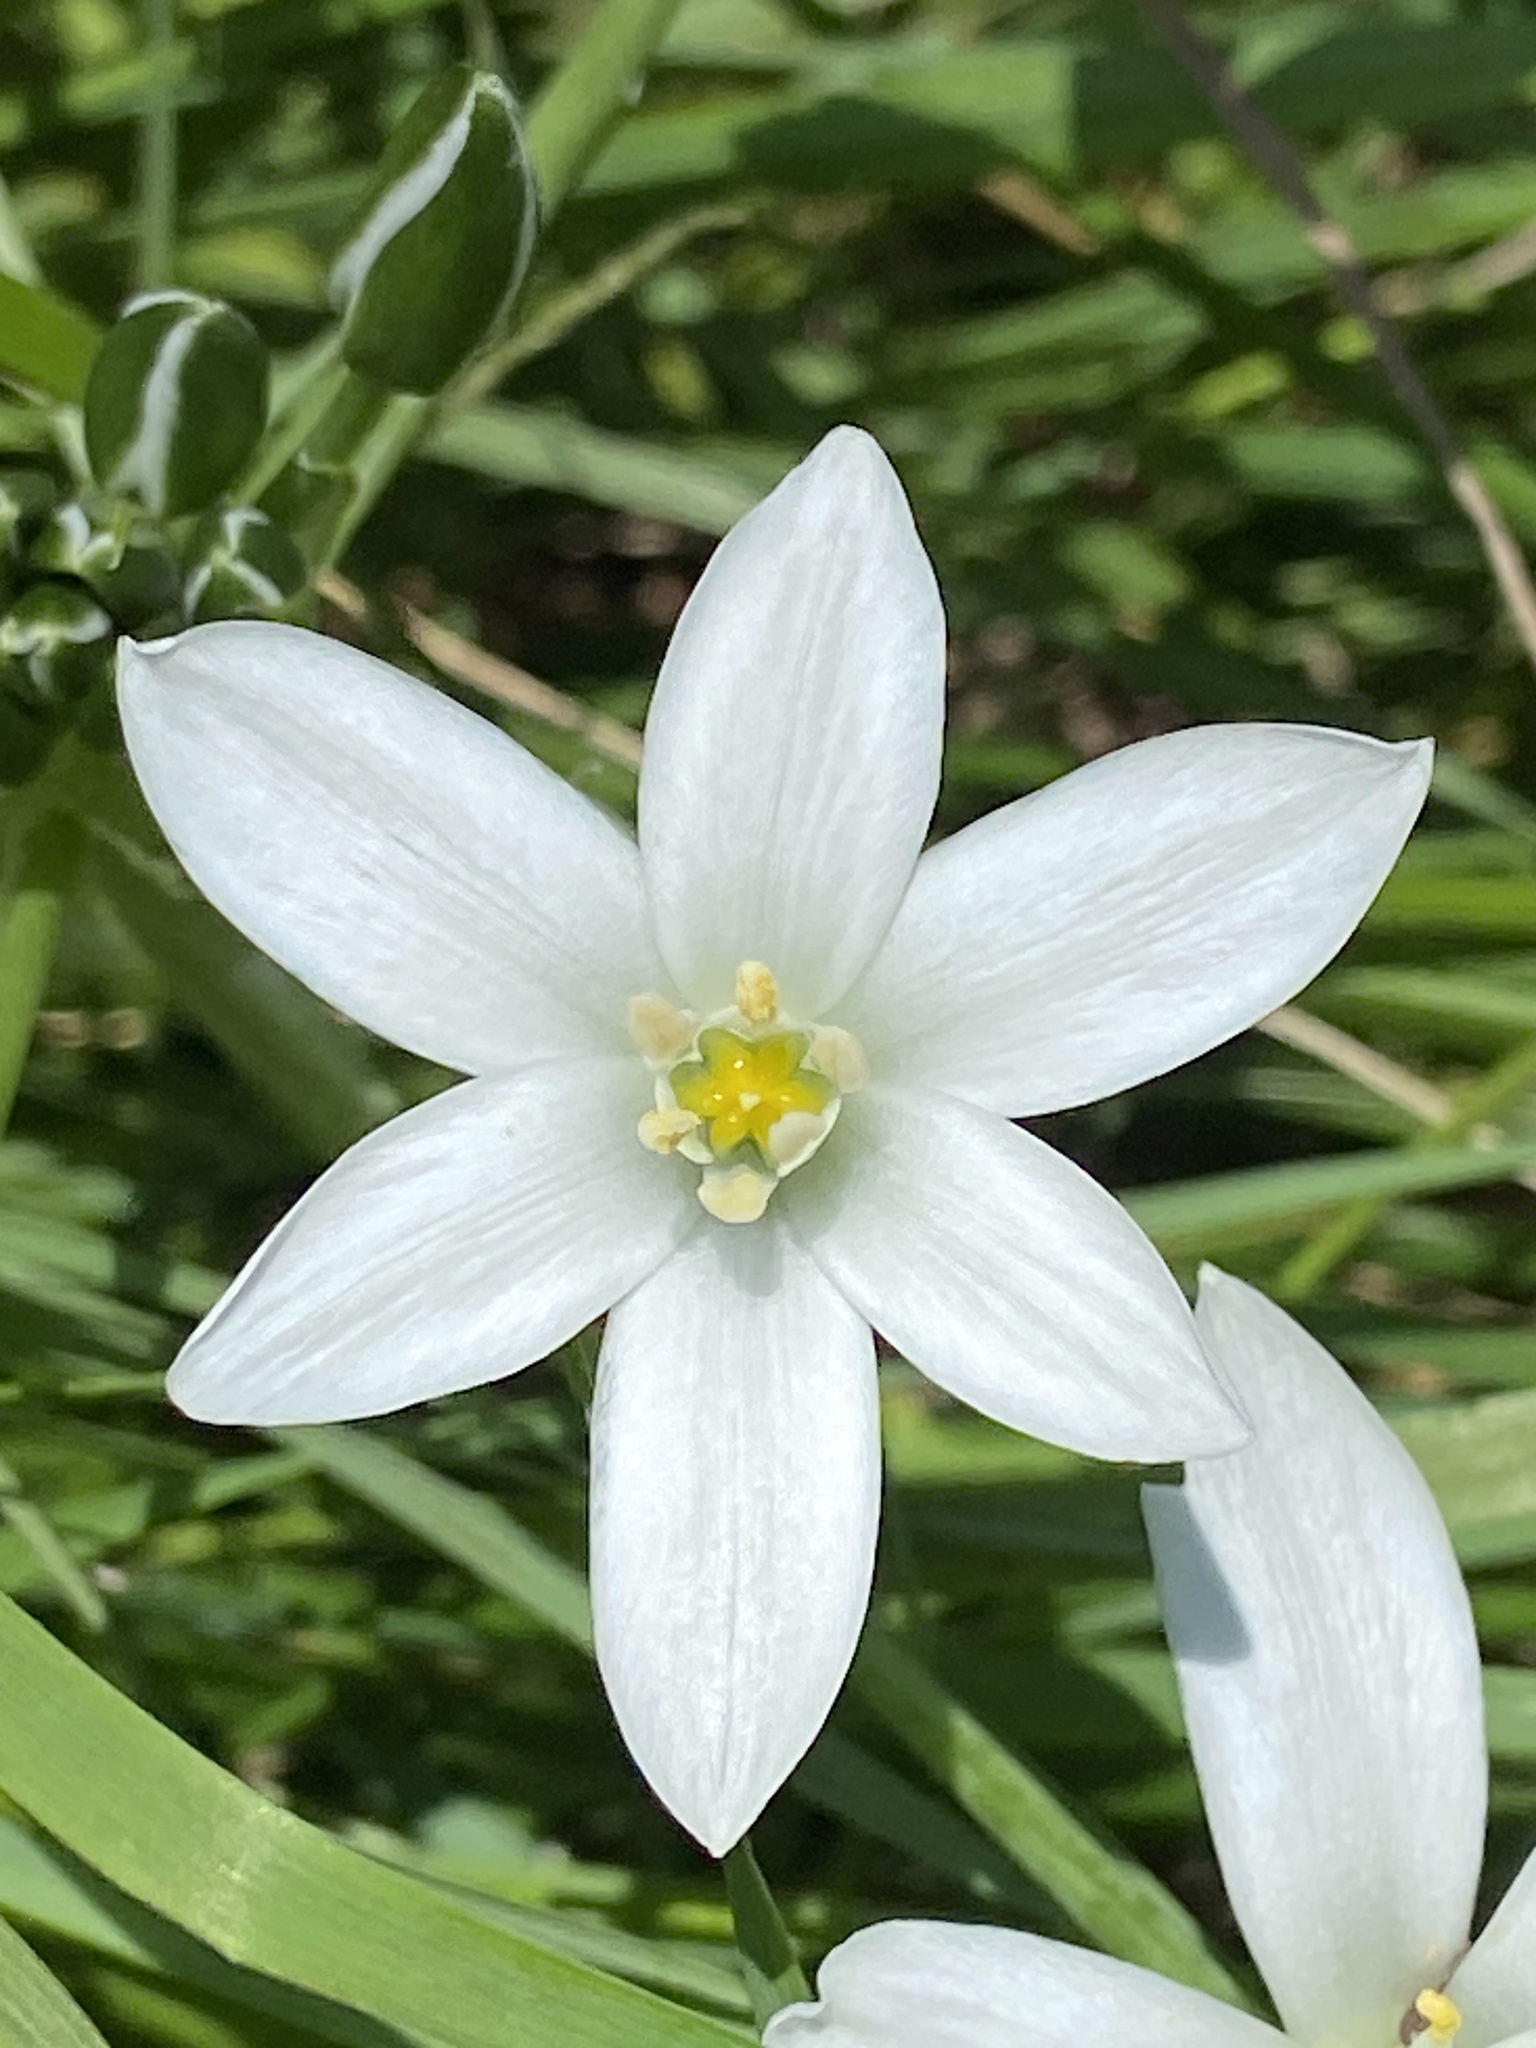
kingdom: Plantae
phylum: Tracheophyta
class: Liliopsida
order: Asparagales
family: Asparagaceae
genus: Ornithogalum
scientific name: Ornithogalum umbellatum
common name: Garden star-of-bethlehem
